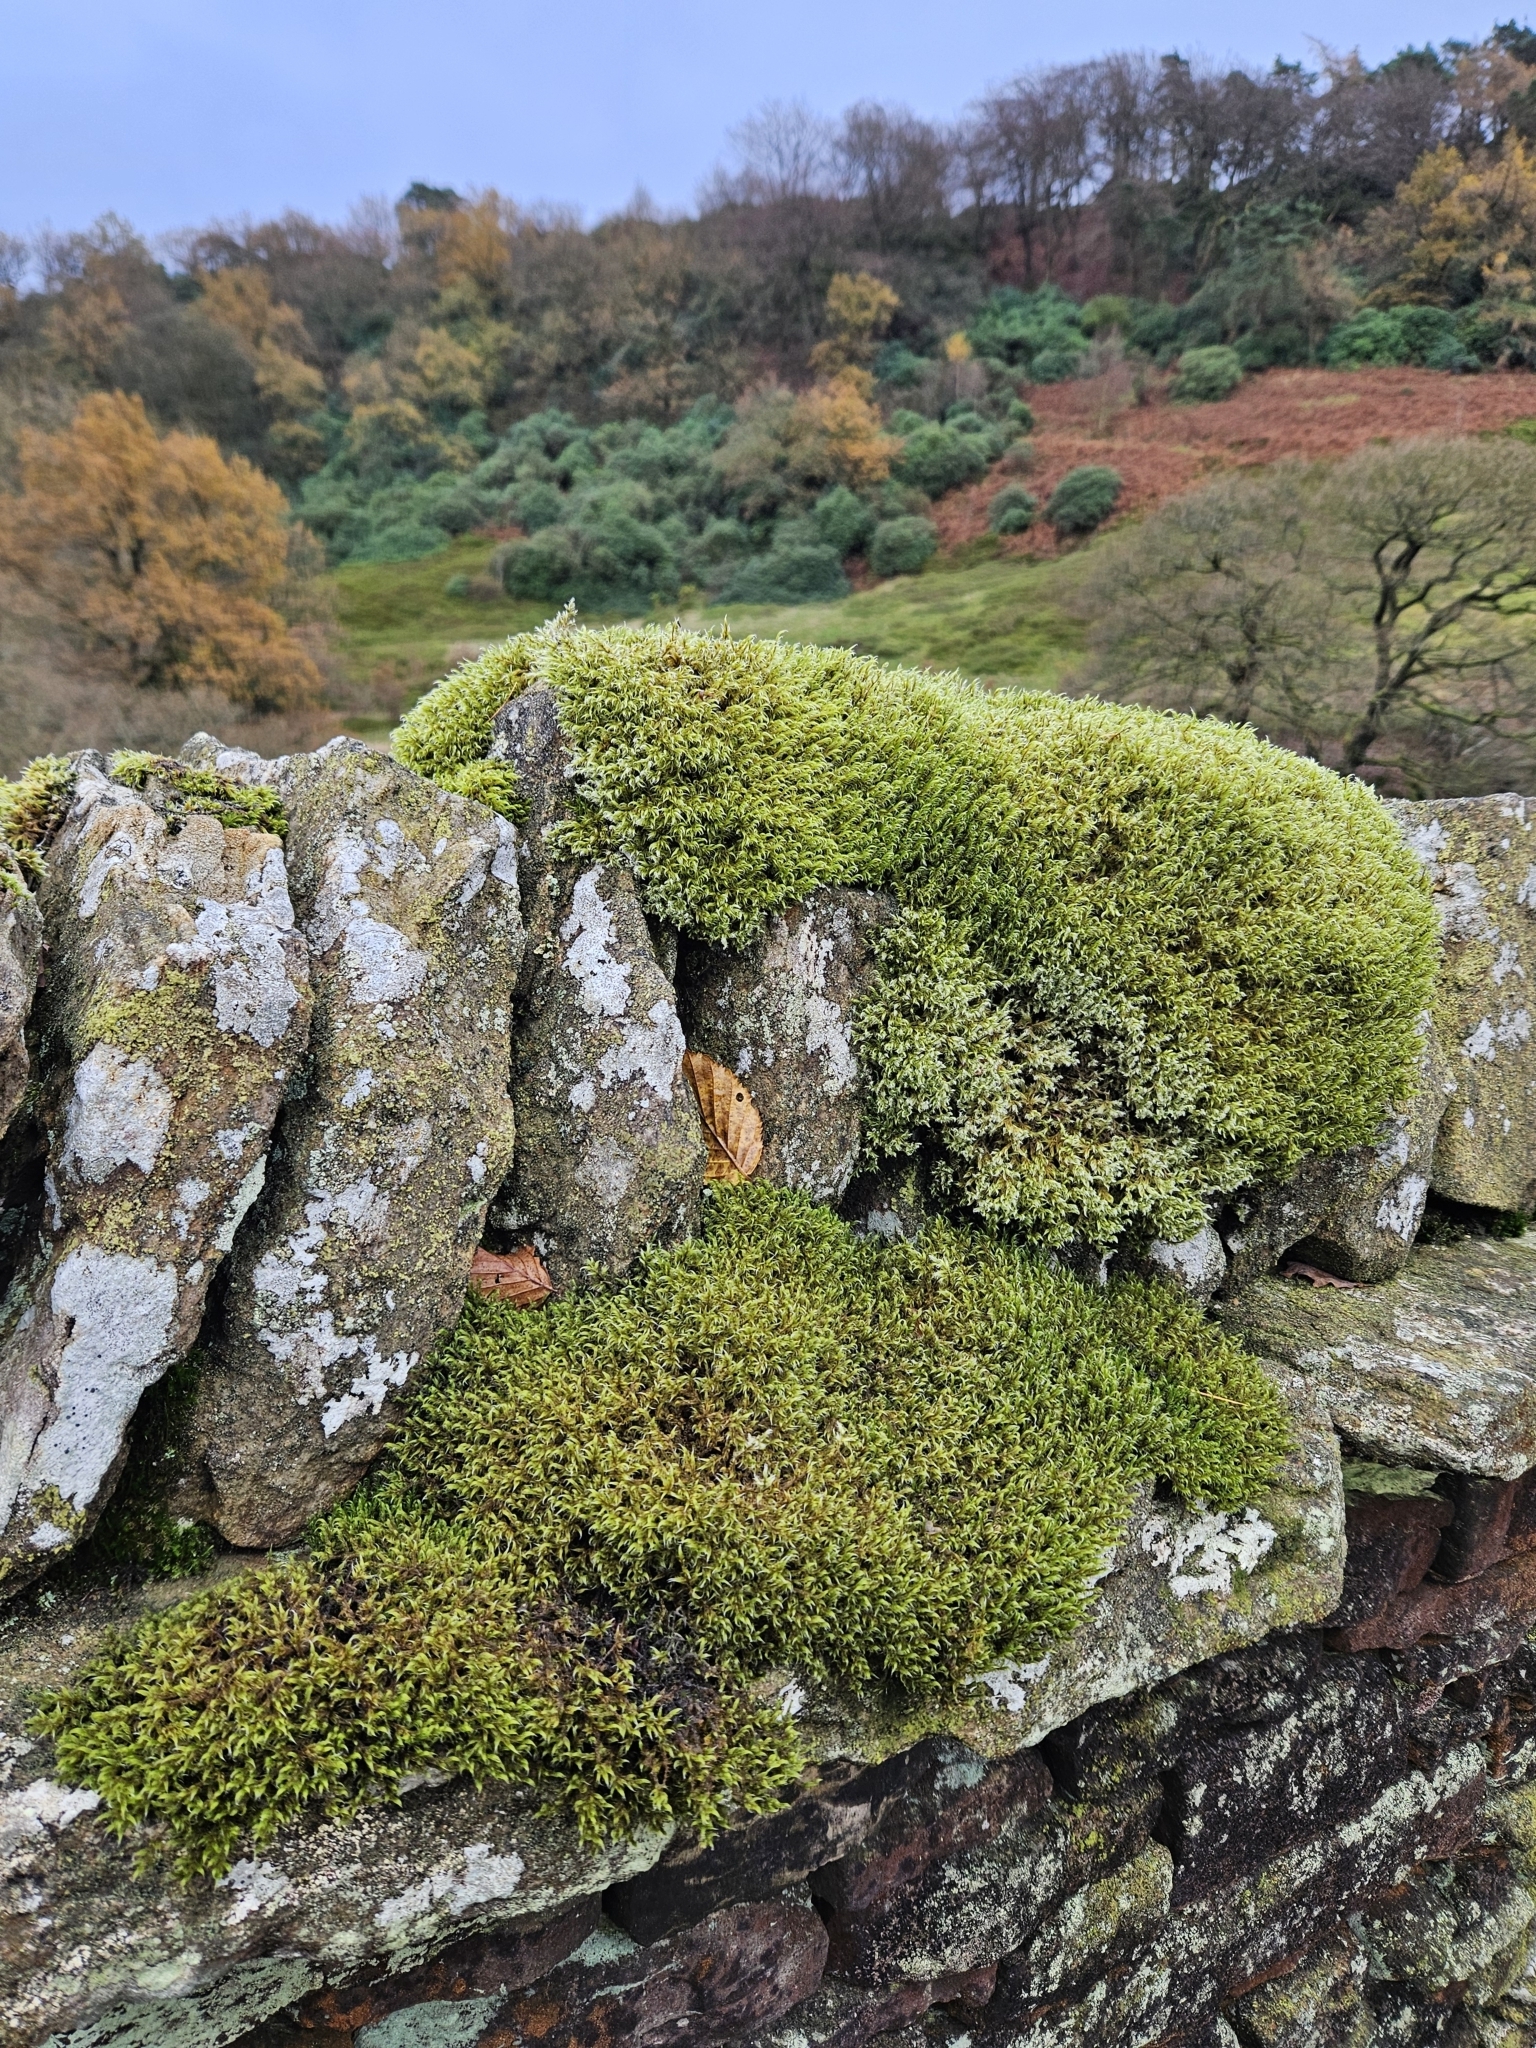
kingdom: Plantae
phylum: Bryophyta
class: Bryopsida
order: Grimmiales
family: Grimmiaceae
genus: Racomitrium
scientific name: Racomitrium lanuginosum
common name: Hoary rock moss
